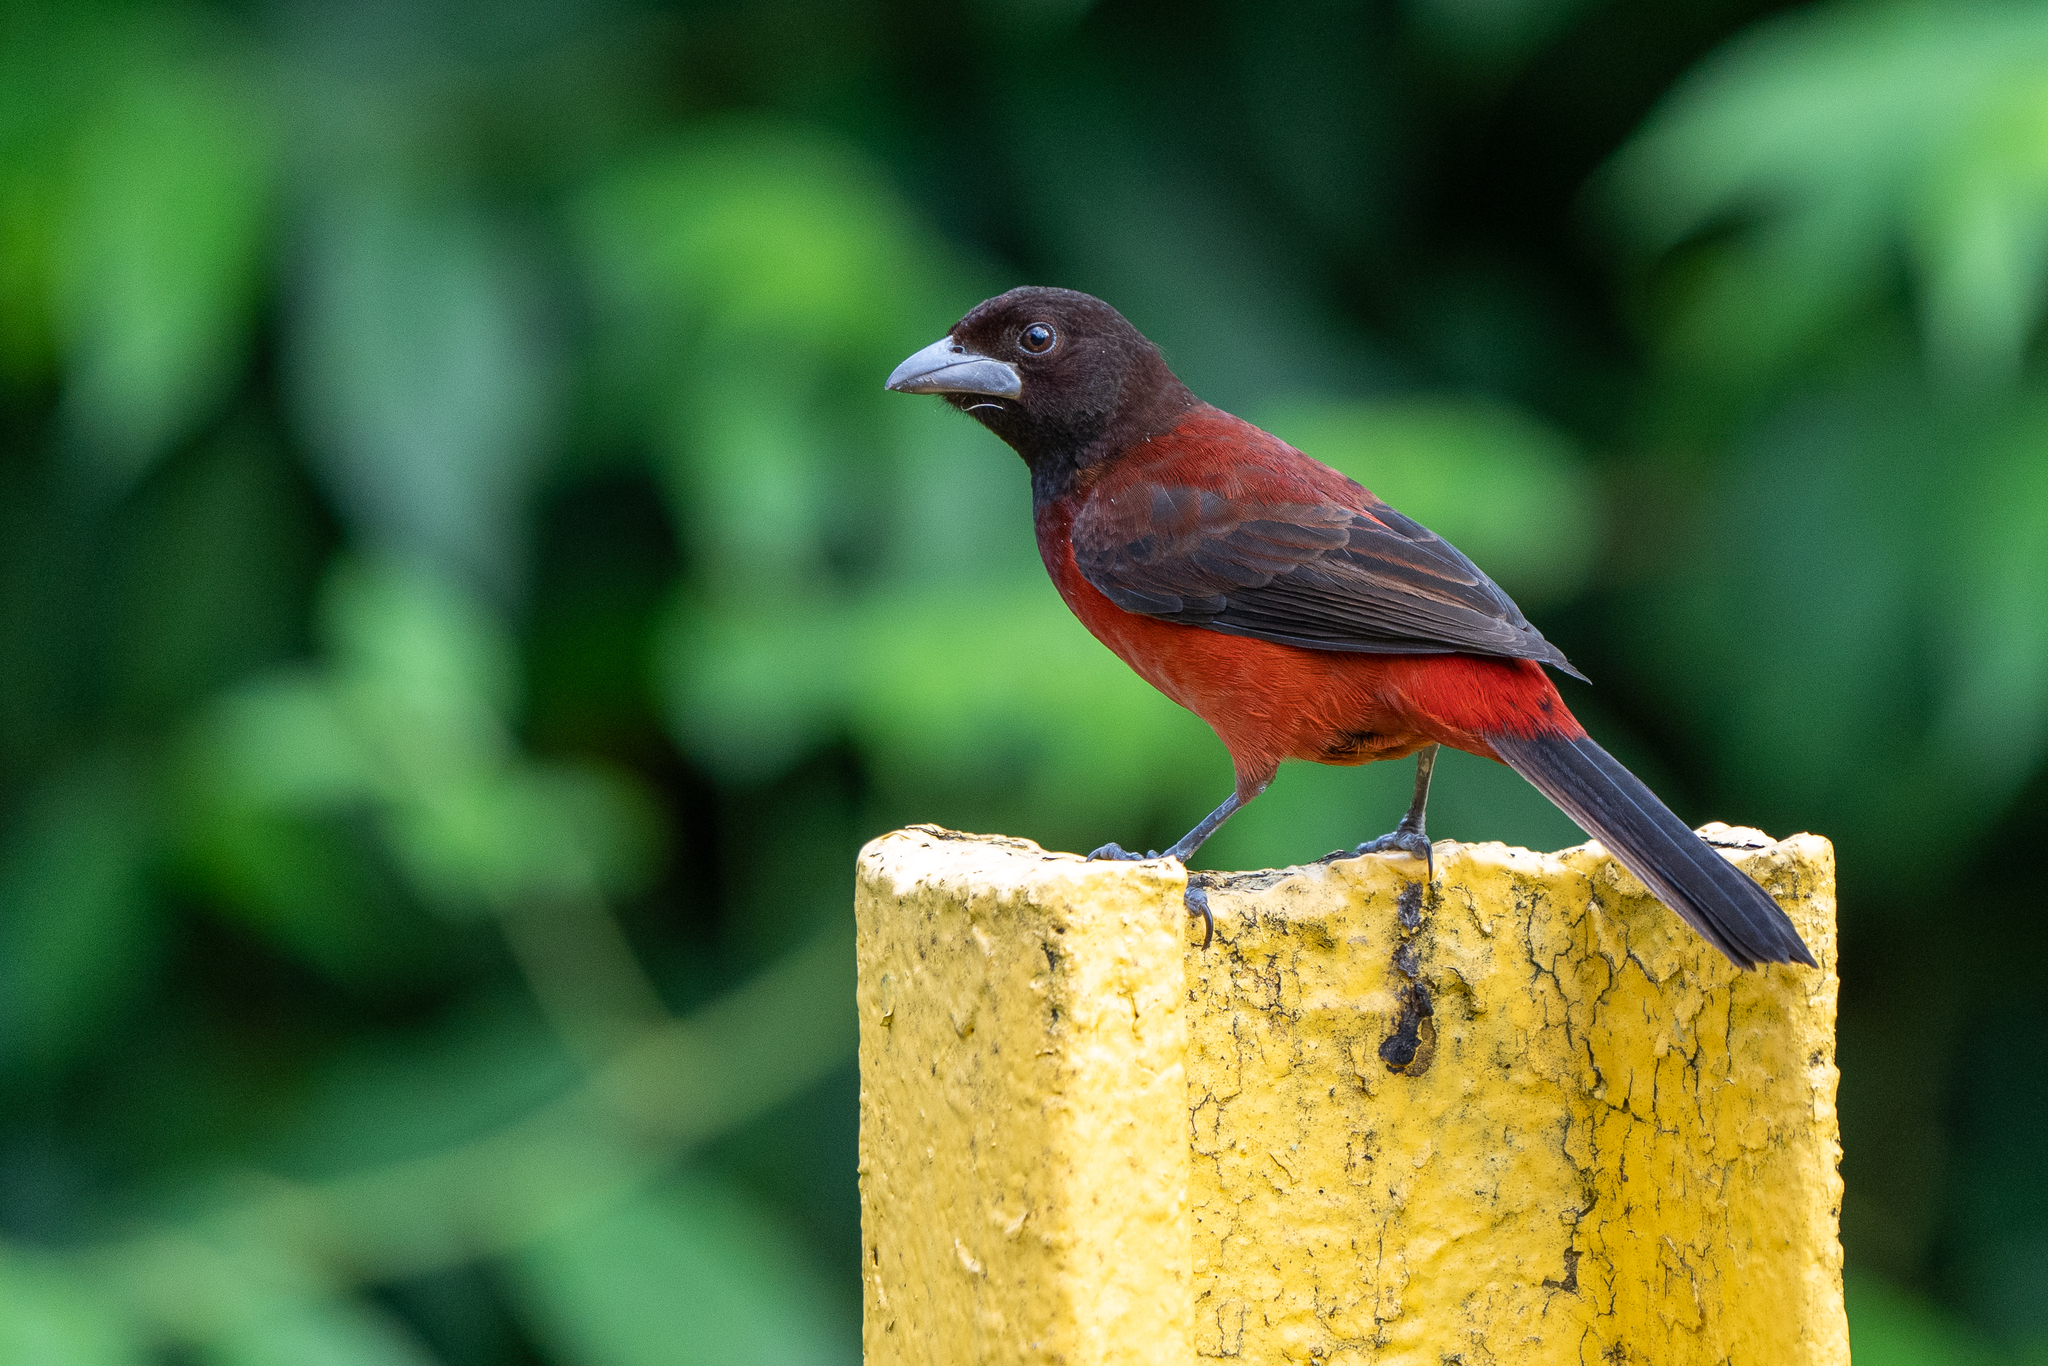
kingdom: Animalia
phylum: Chordata
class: Aves
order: Passeriformes
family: Thraupidae
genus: Ramphocelus
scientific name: Ramphocelus dimidiatus
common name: Crimson-backed tanager
